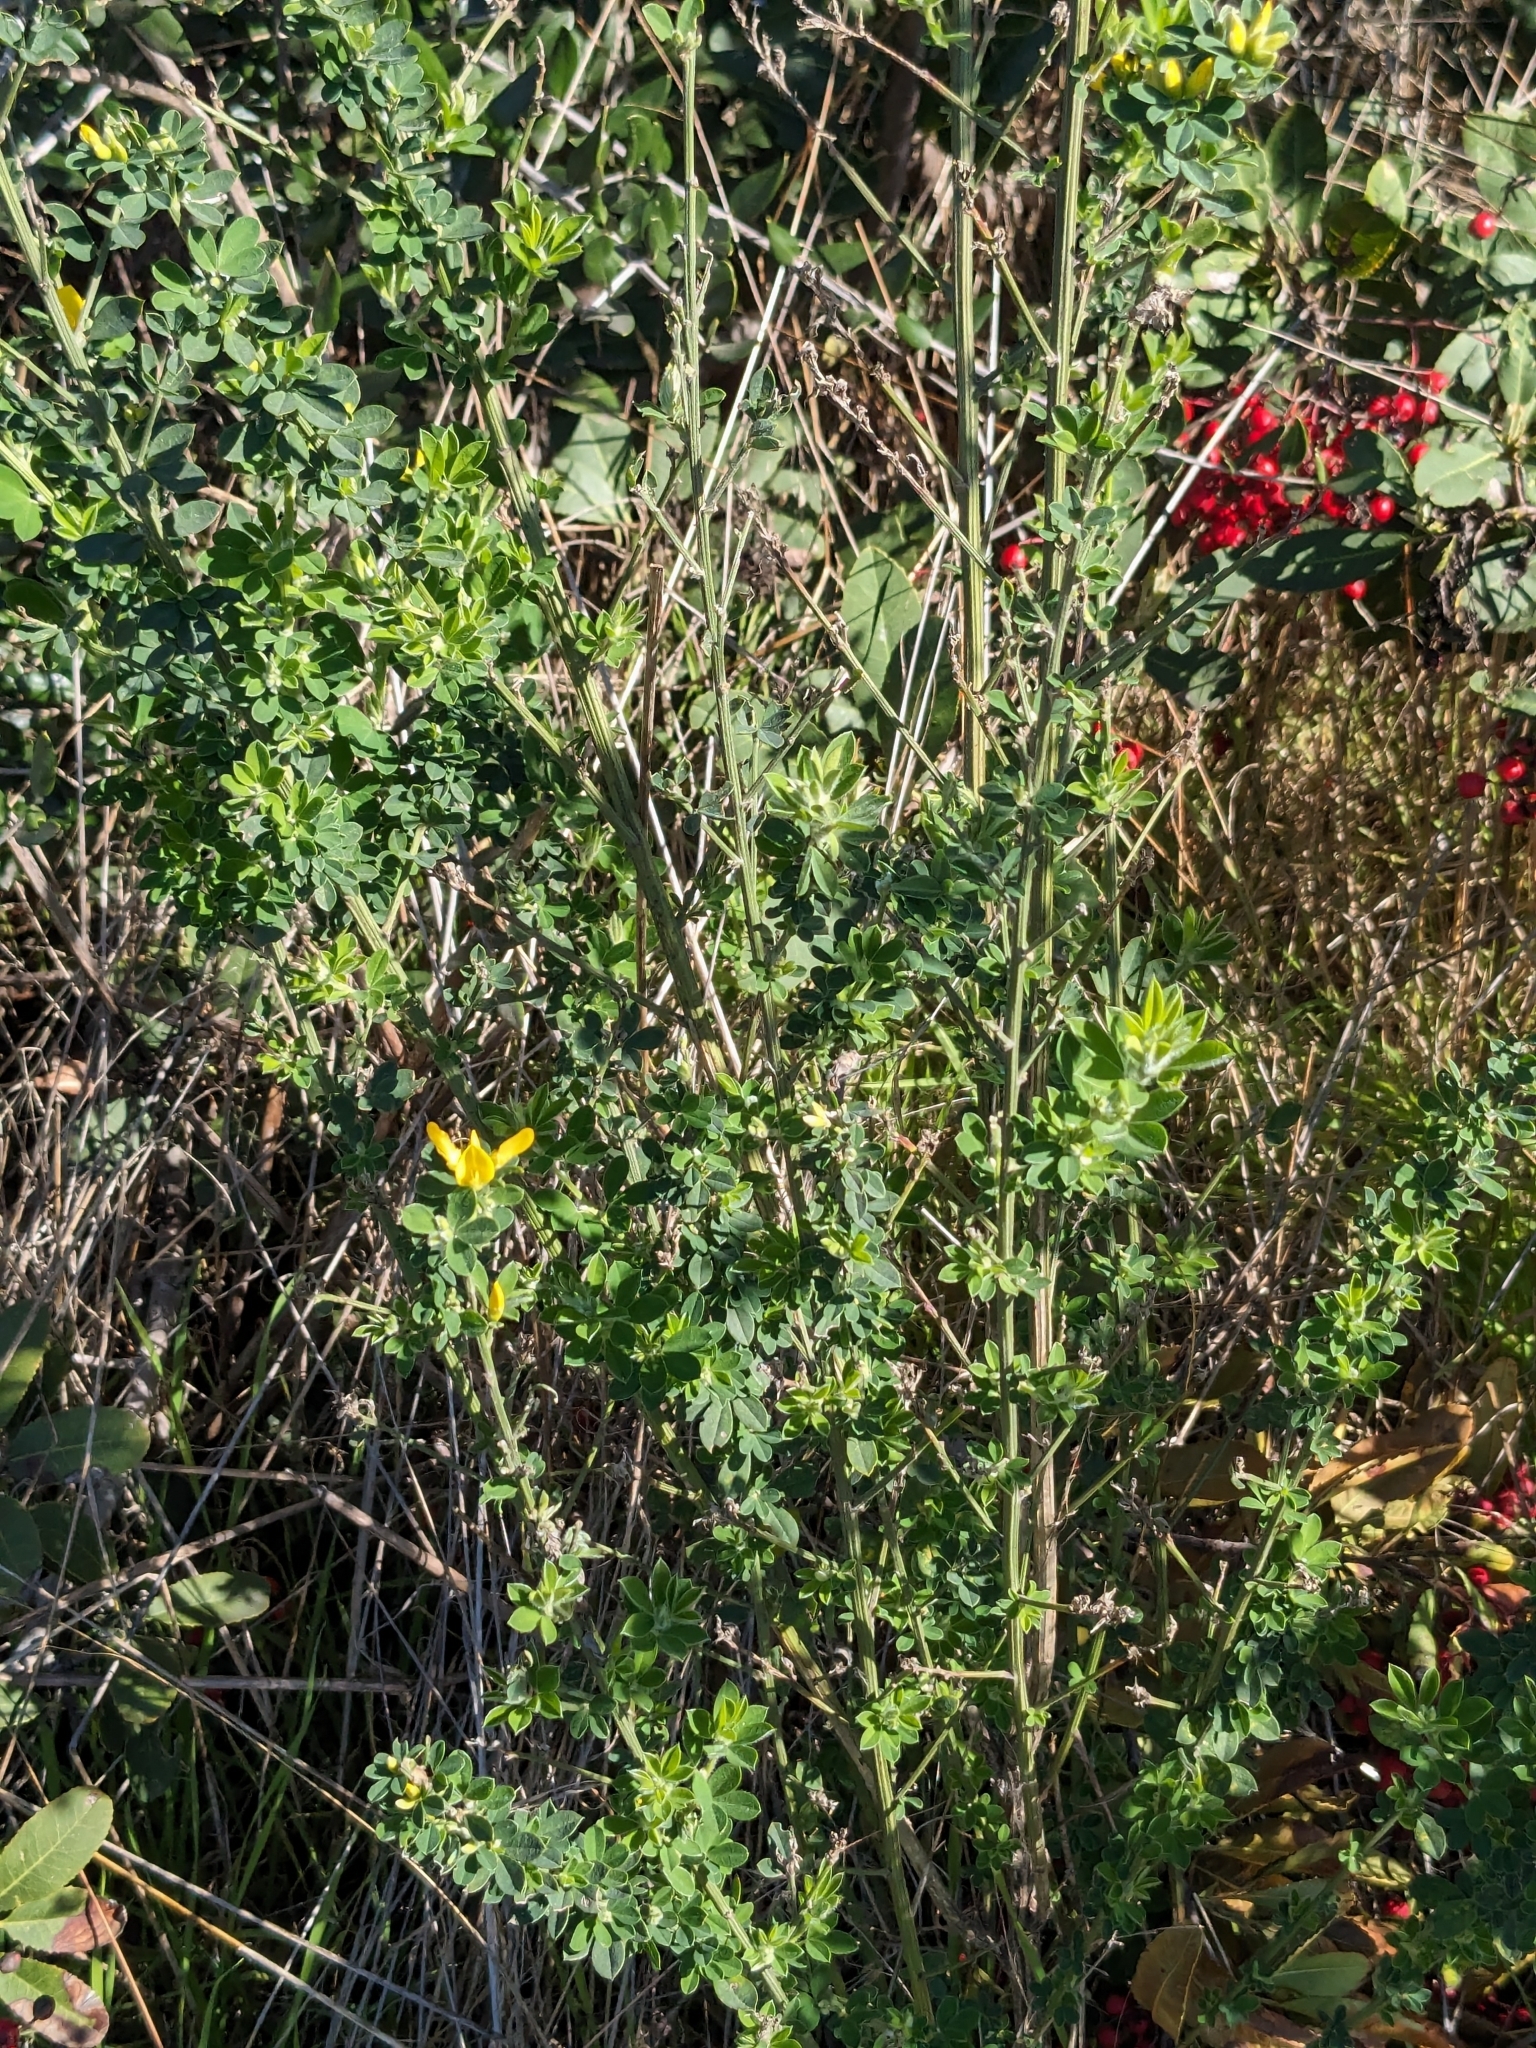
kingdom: Plantae
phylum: Tracheophyta
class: Magnoliopsida
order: Fabales
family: Fabaceae
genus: Genista
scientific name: Genista monspessulana
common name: Montpellier broom
